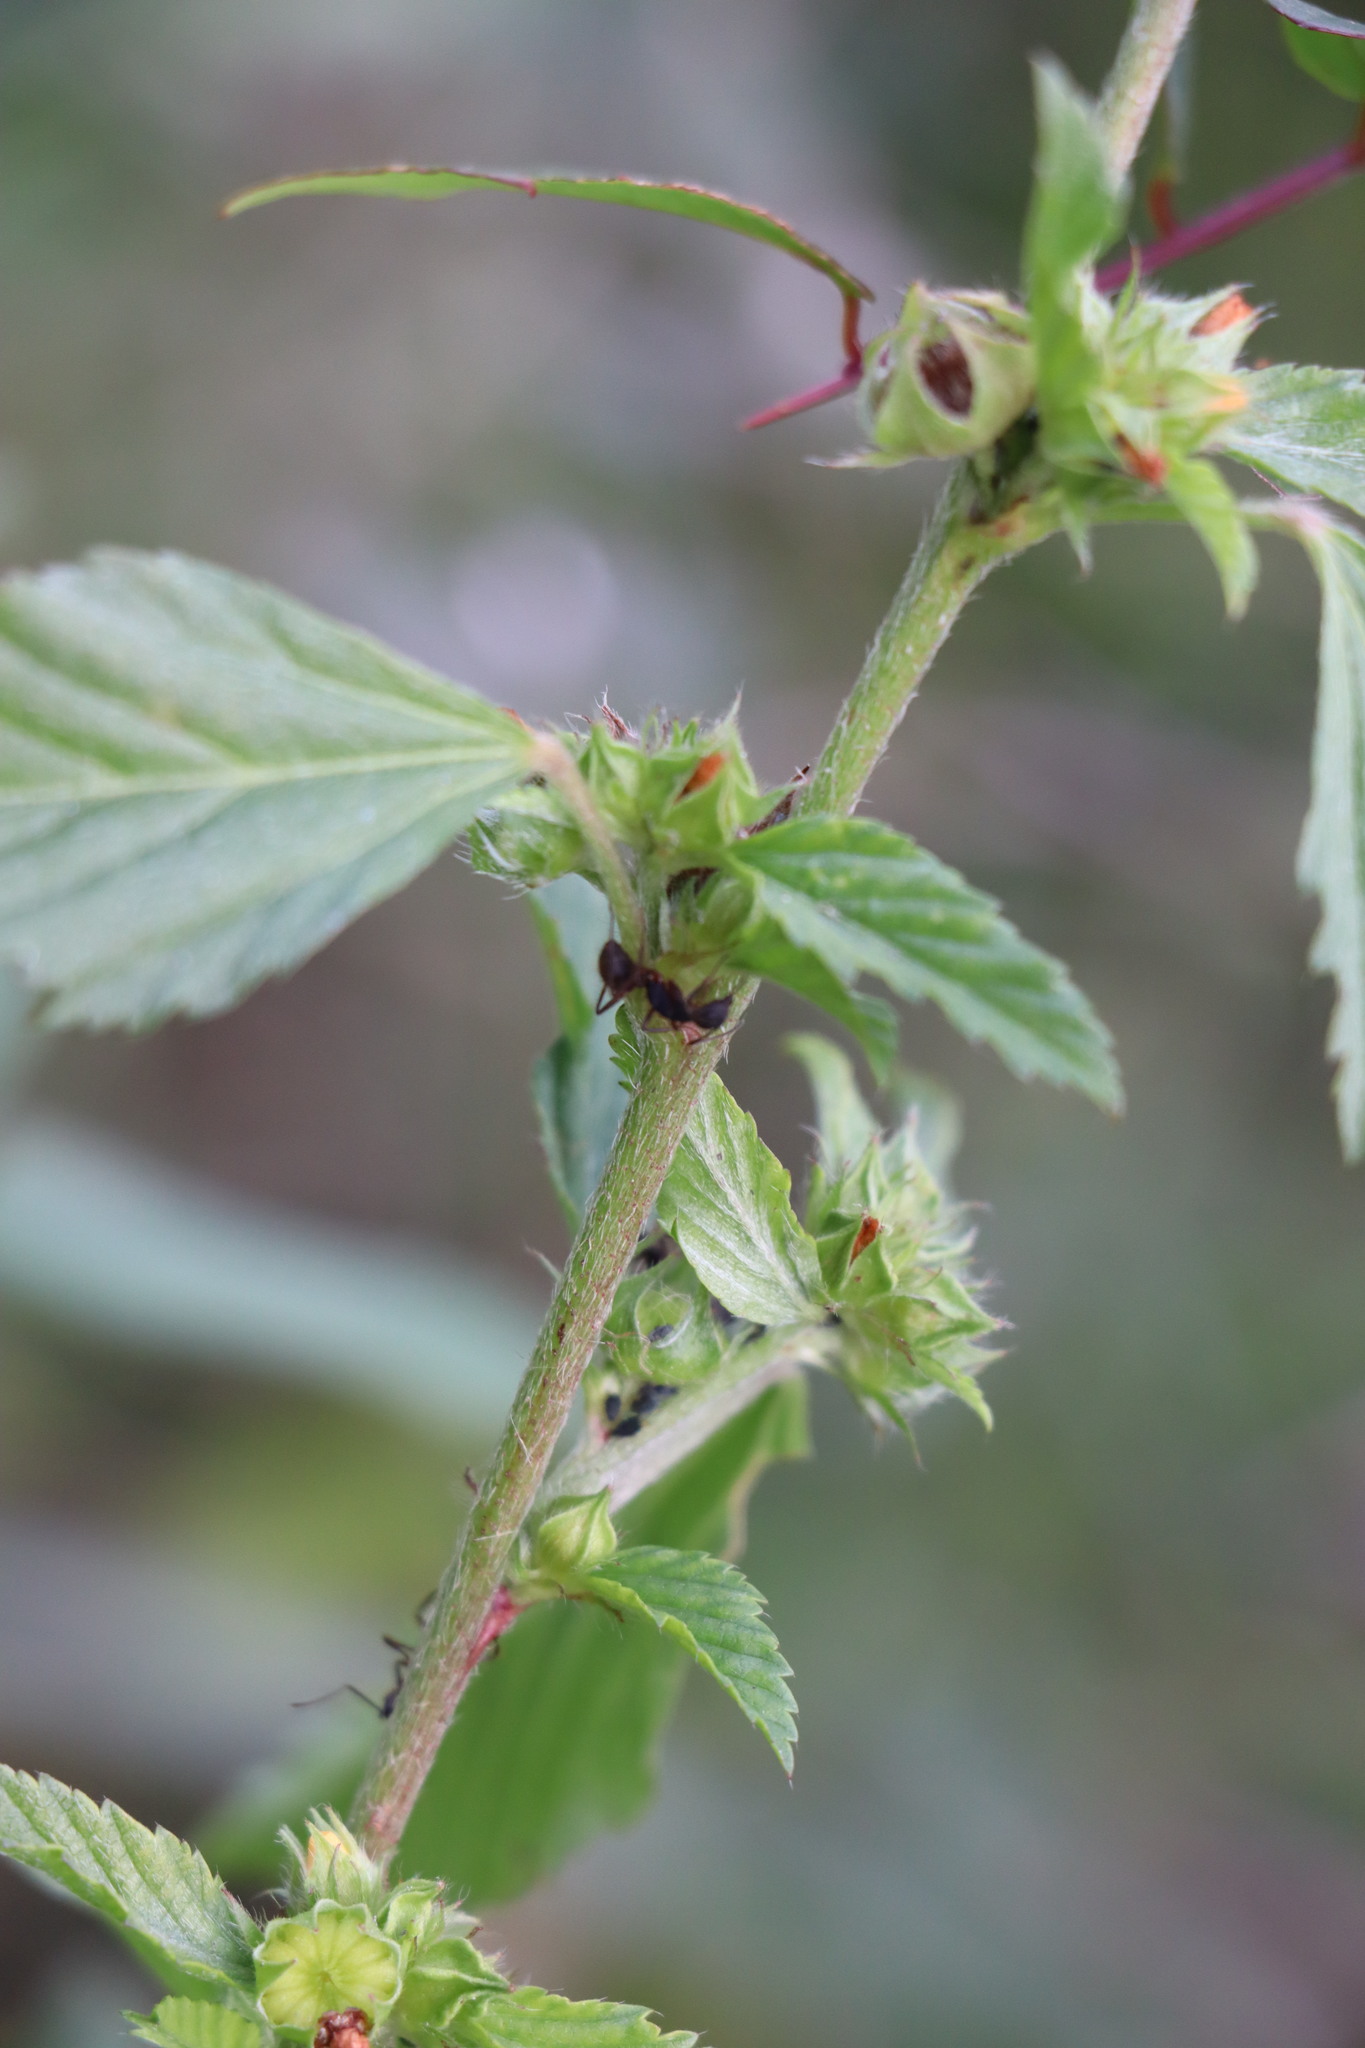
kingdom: Plantae
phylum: Tracheophyta
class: Magnoliopsida
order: Malvales
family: Malvaceae
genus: Malvastrum
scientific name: Malvastrum coromandelianum
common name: Threelobe false mallow
